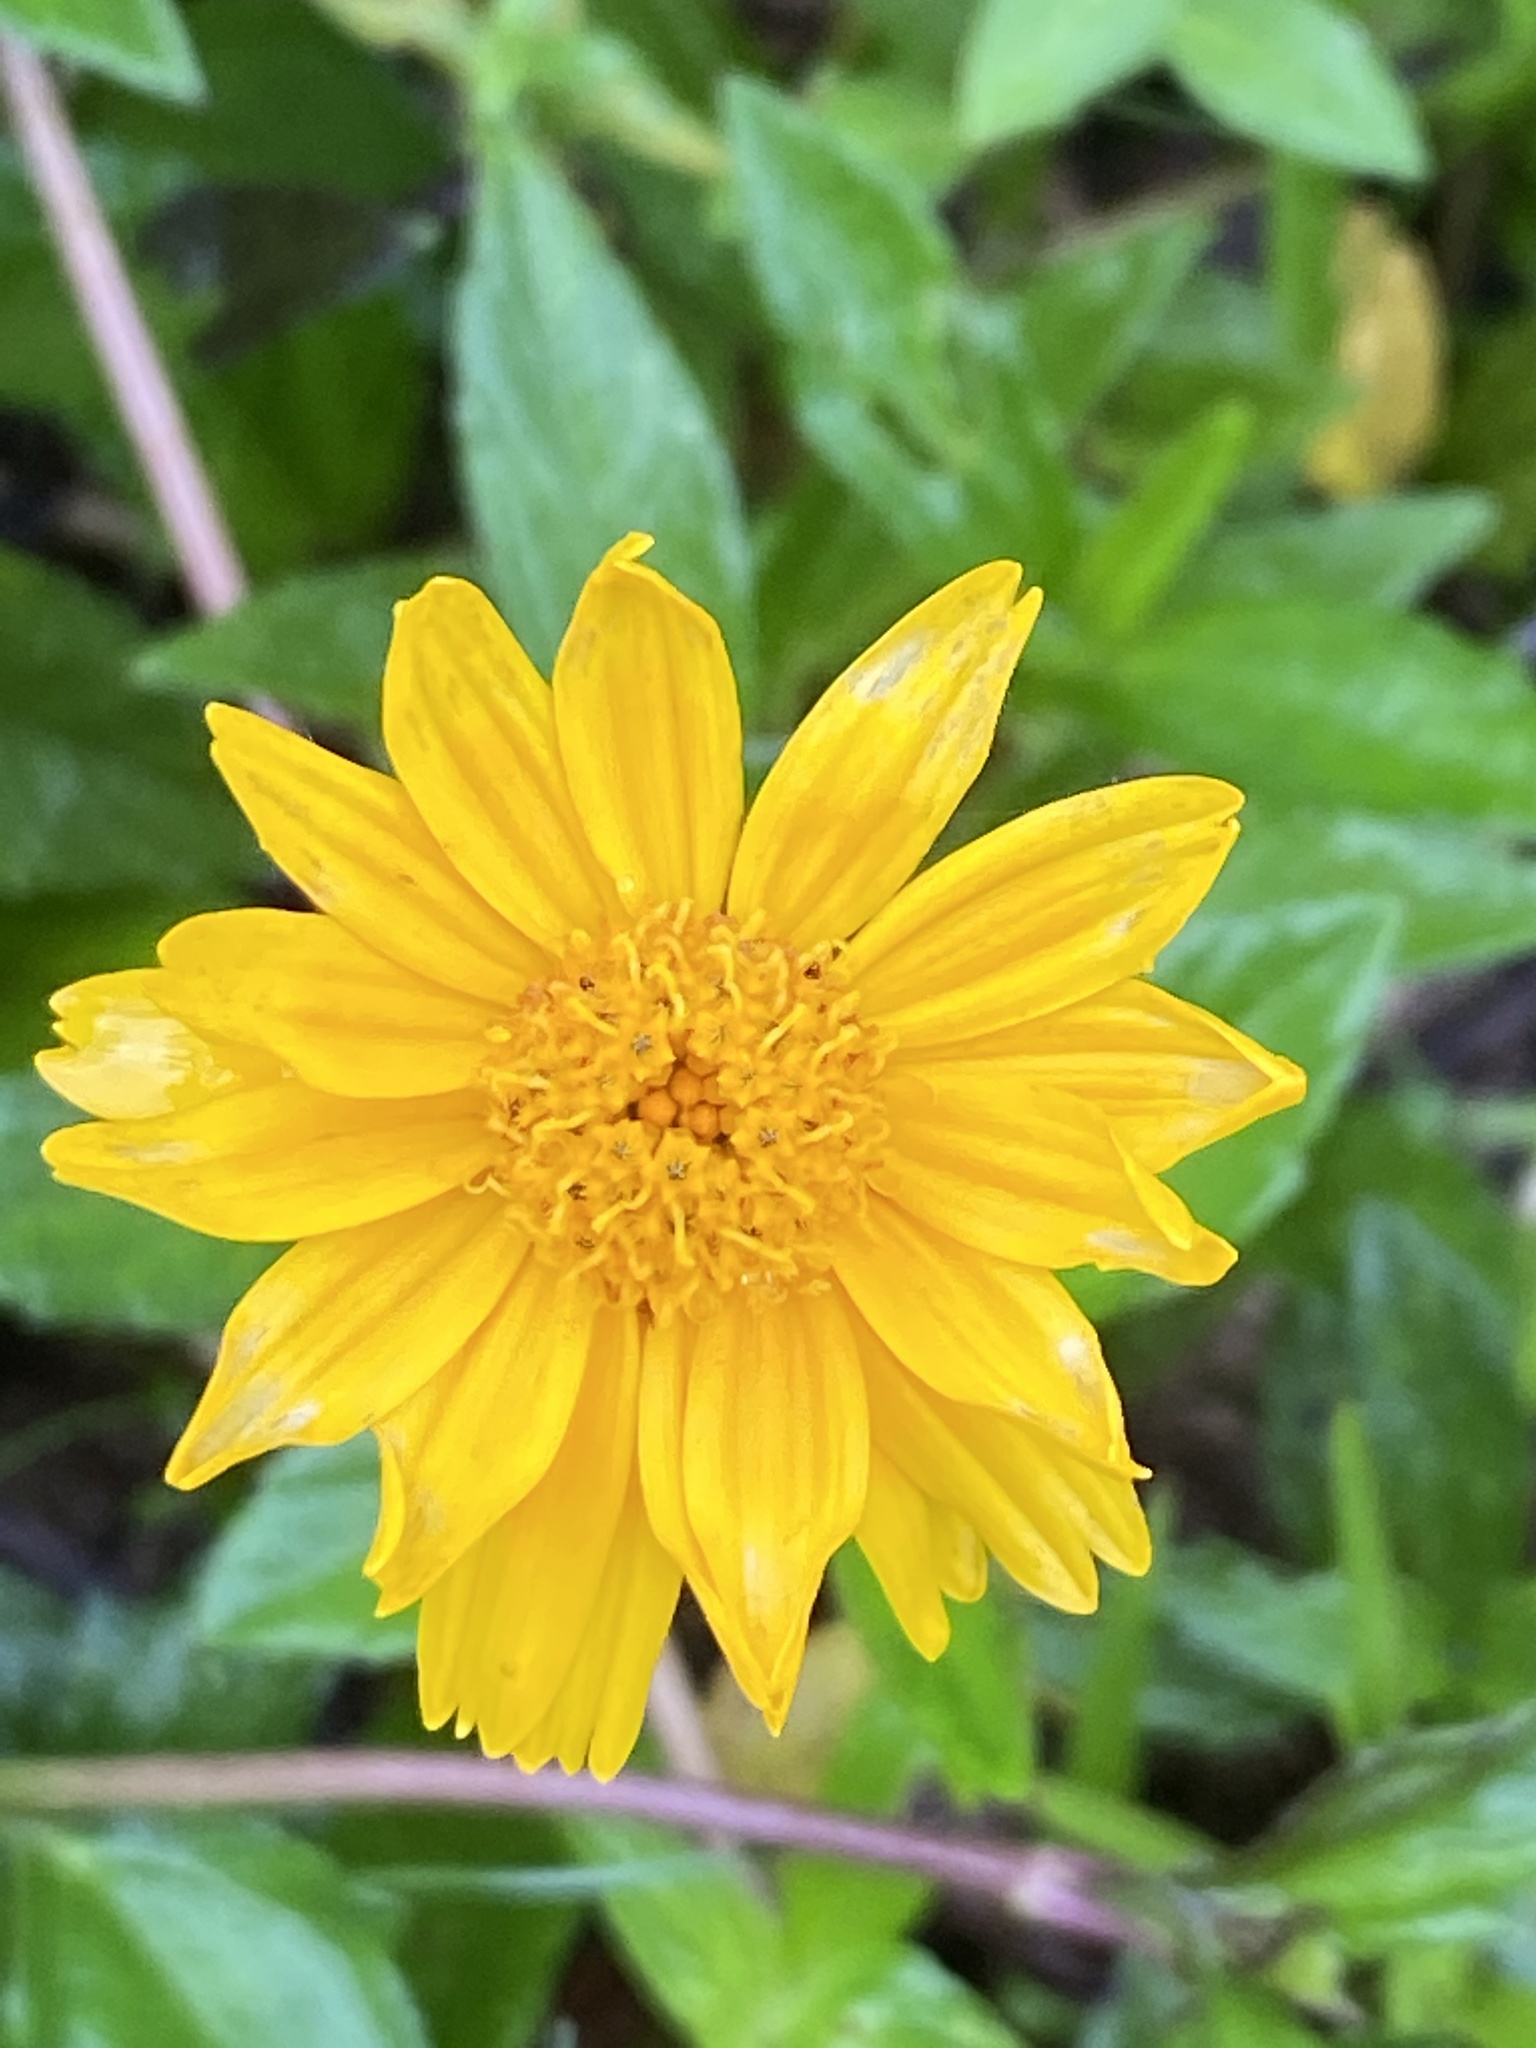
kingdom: Plantae
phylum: Tracheophyta
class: Magnoliopsida
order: Asterales
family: Asteraceae
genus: Sphagneticola
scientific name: Sphagneticola trilobata
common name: Bay biscayne creeping-oxeye
